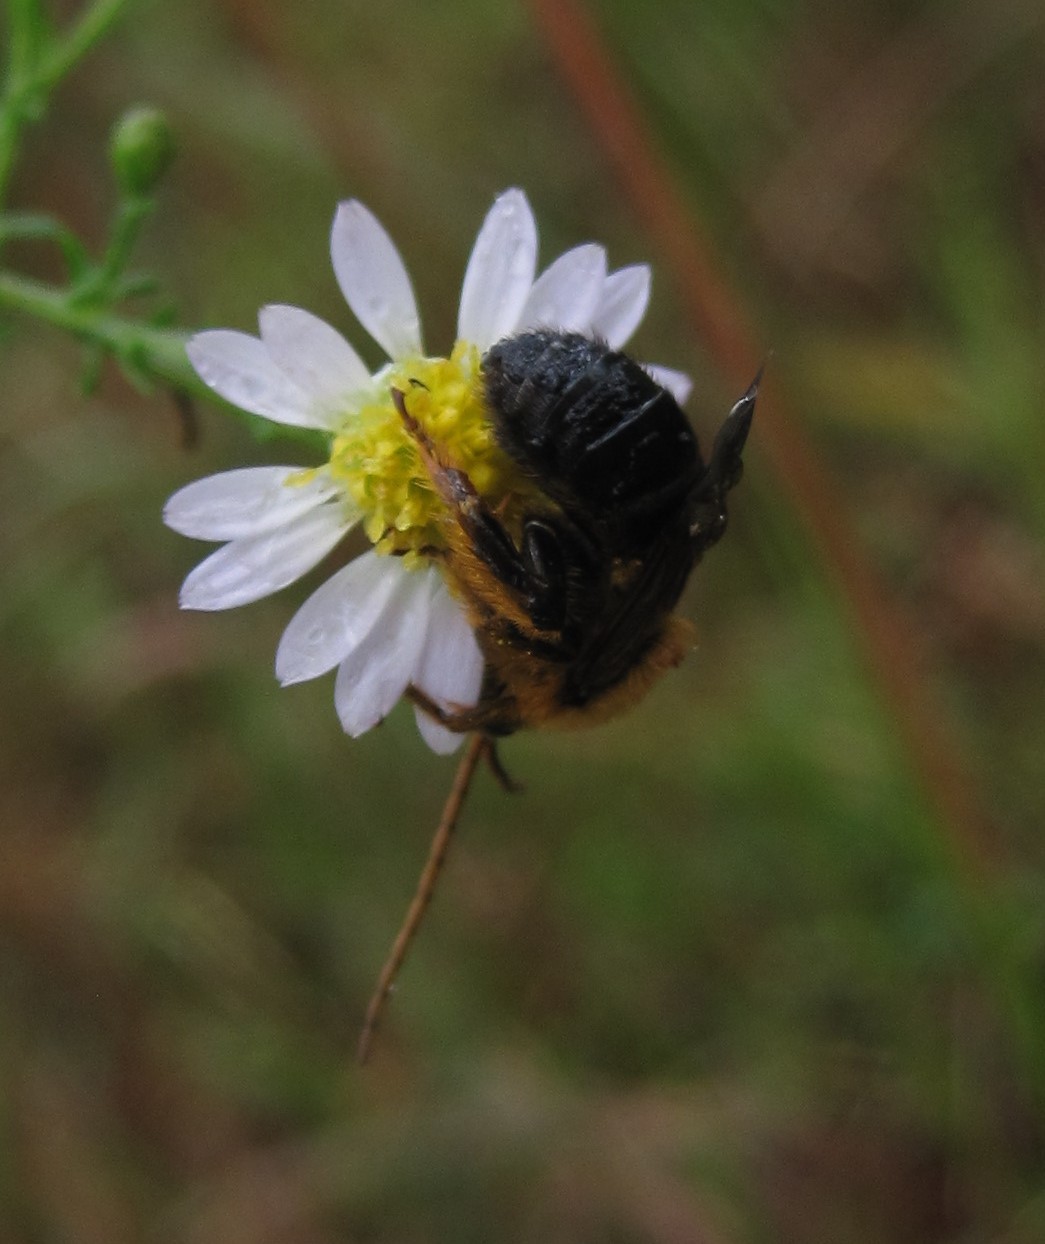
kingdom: Animalia
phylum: Arthropoda
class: Insecta
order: Hymenoptera
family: Apidae
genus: Melissodes
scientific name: Melissodes dentiventris
